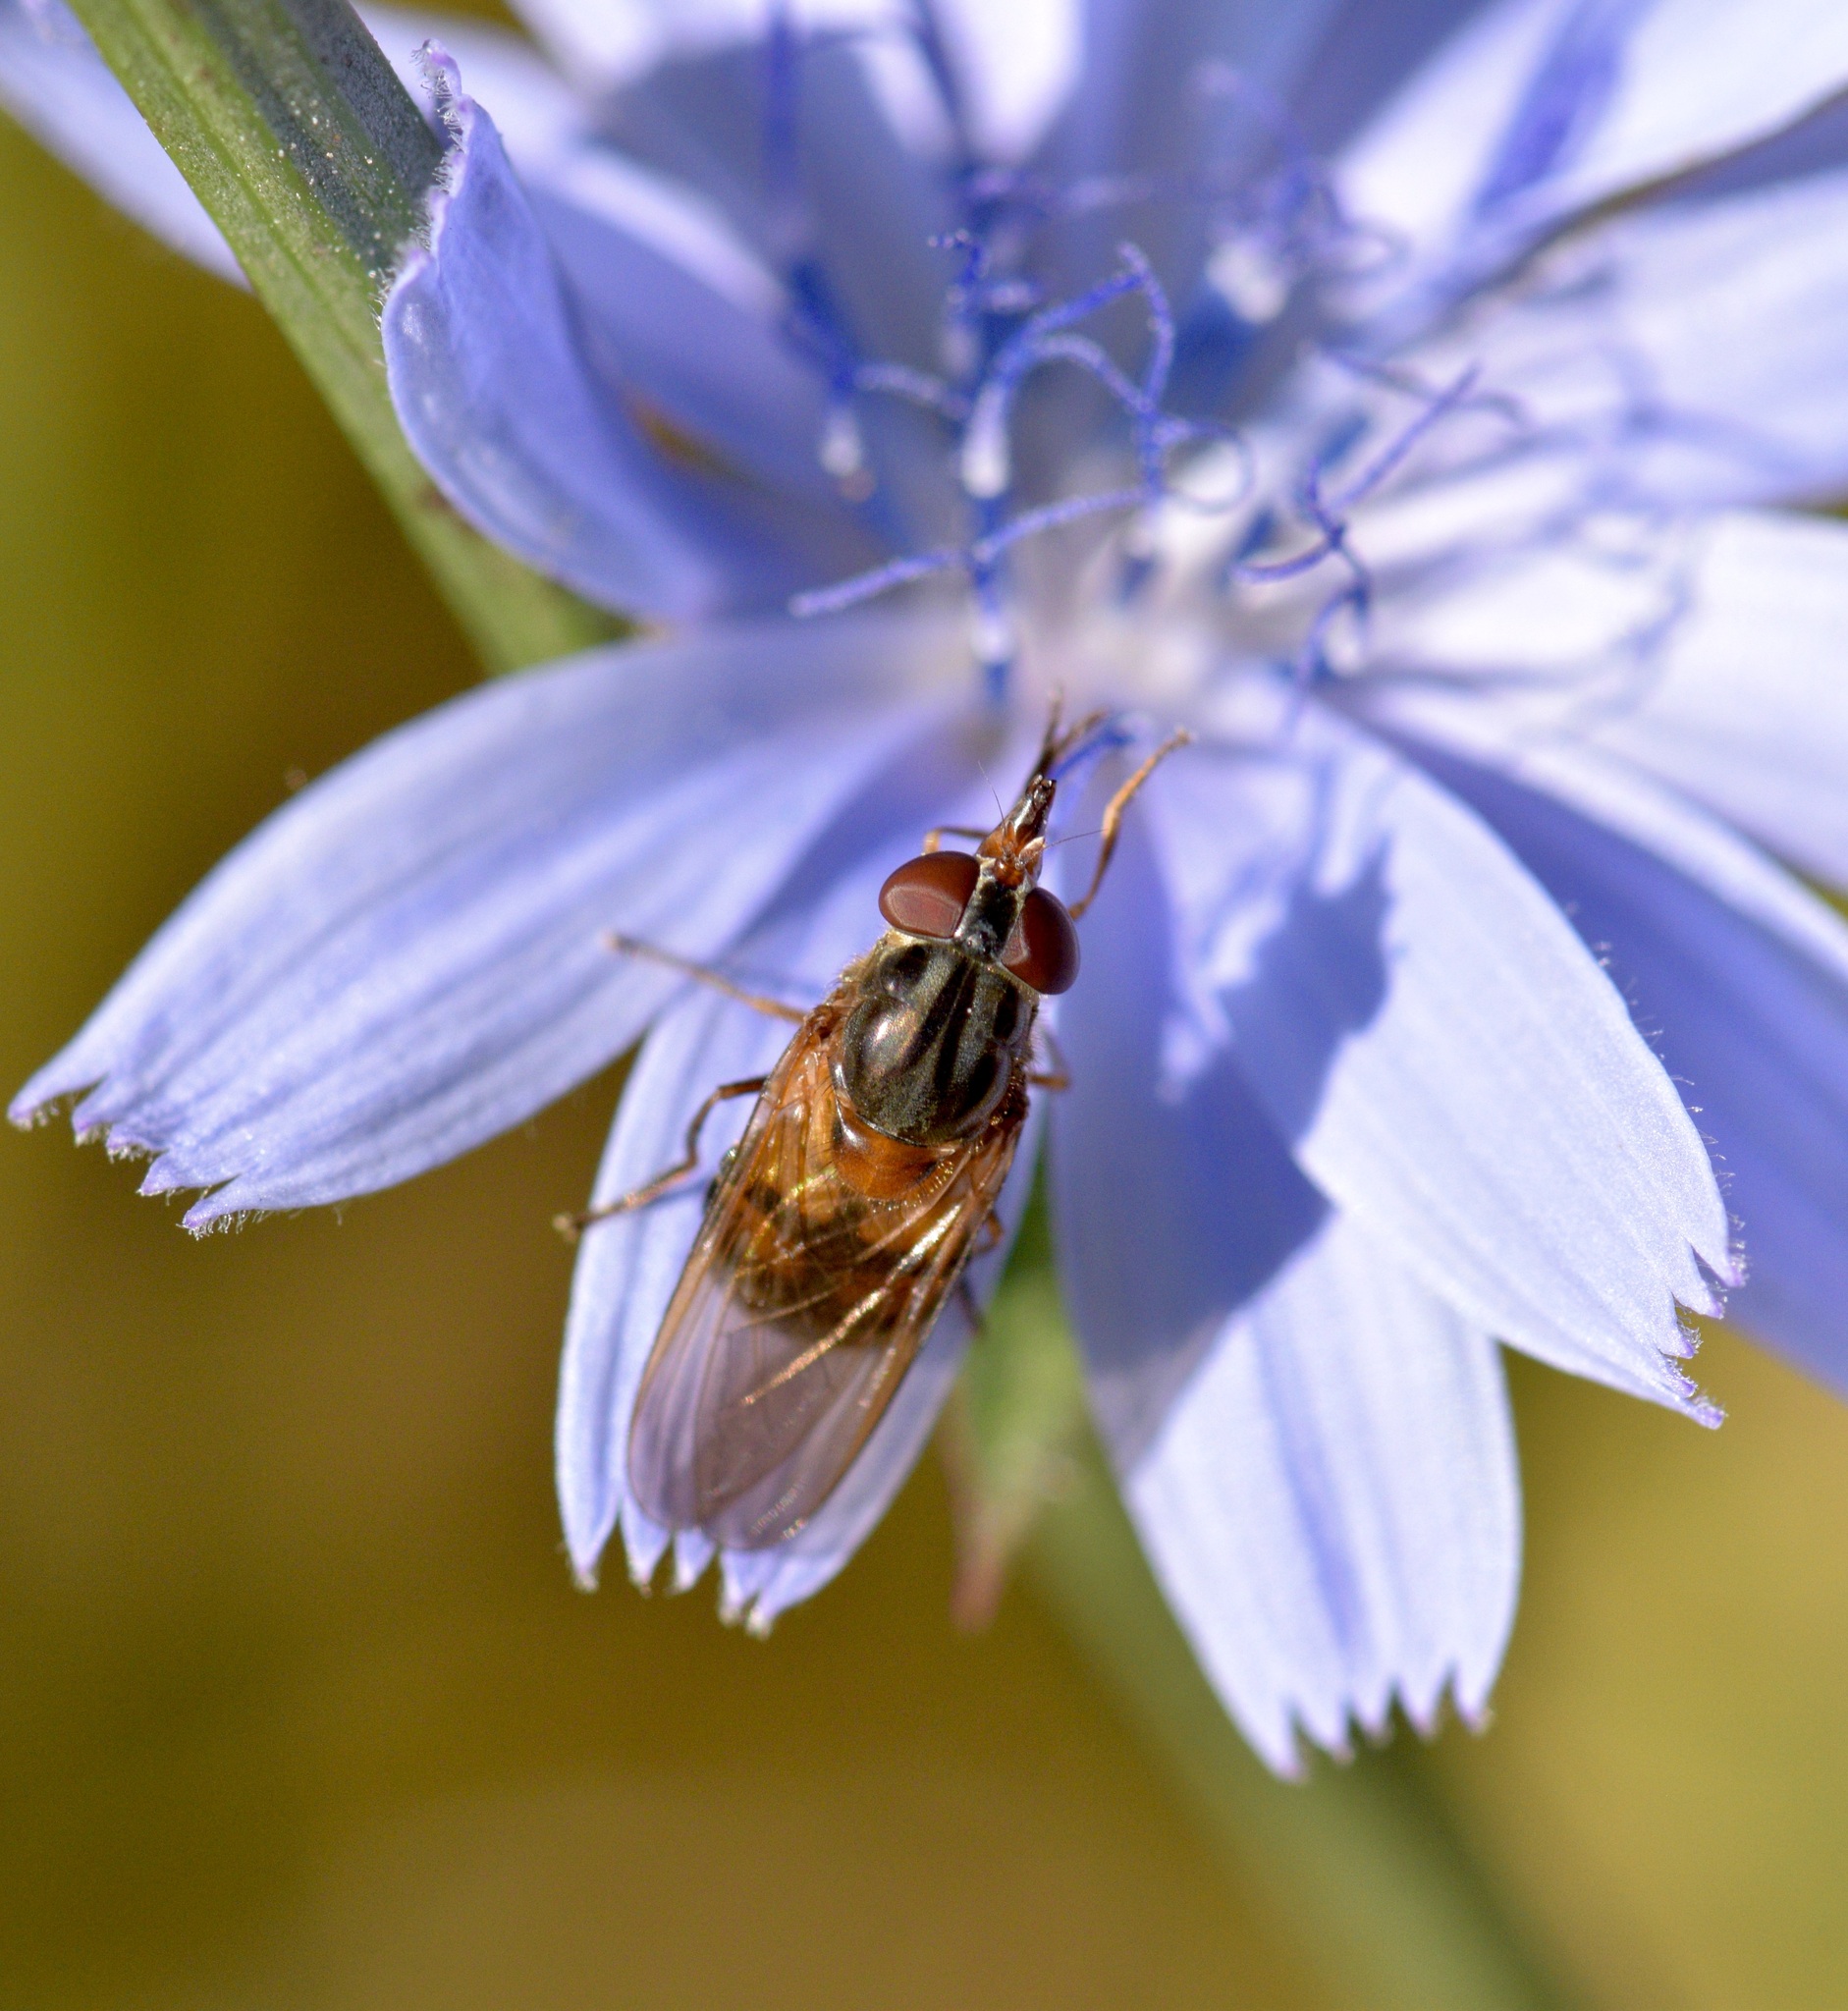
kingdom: Animalia
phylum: Arthropoda
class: Insecta
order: Diptera
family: Syrphidae
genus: Rhingia
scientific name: Rhingia nasica
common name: American snout fly
